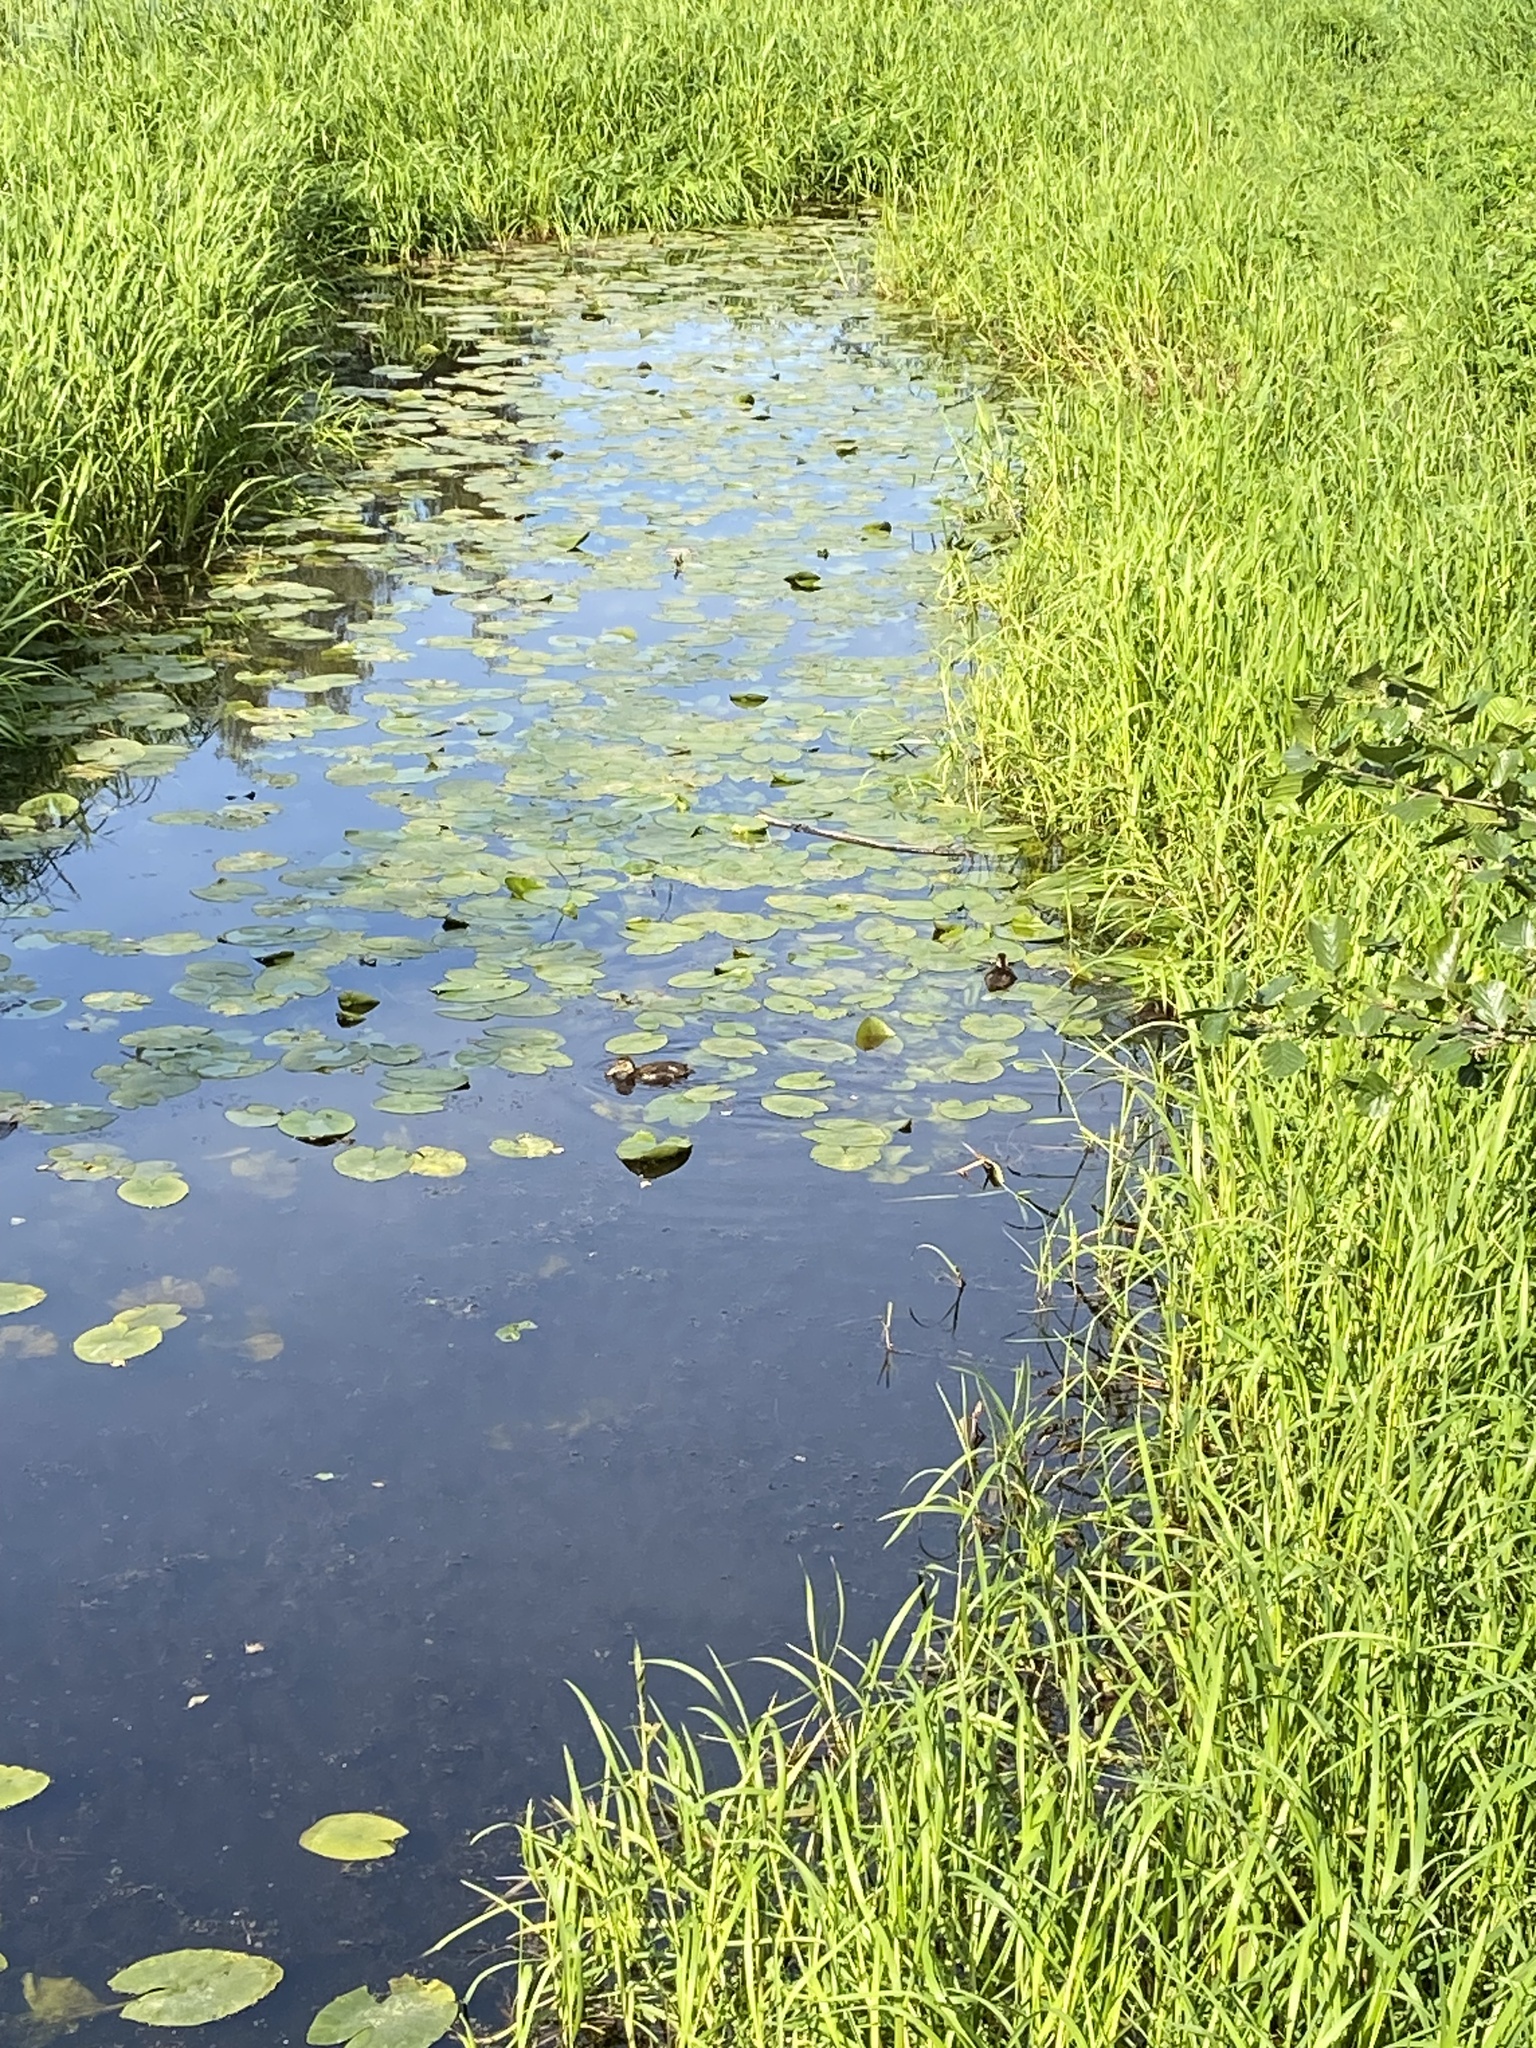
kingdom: Animalia
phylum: Chordata
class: Aves
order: Anseriformes
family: Anatidae
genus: Anas
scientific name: Anas platyrhynchos
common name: Mallard
